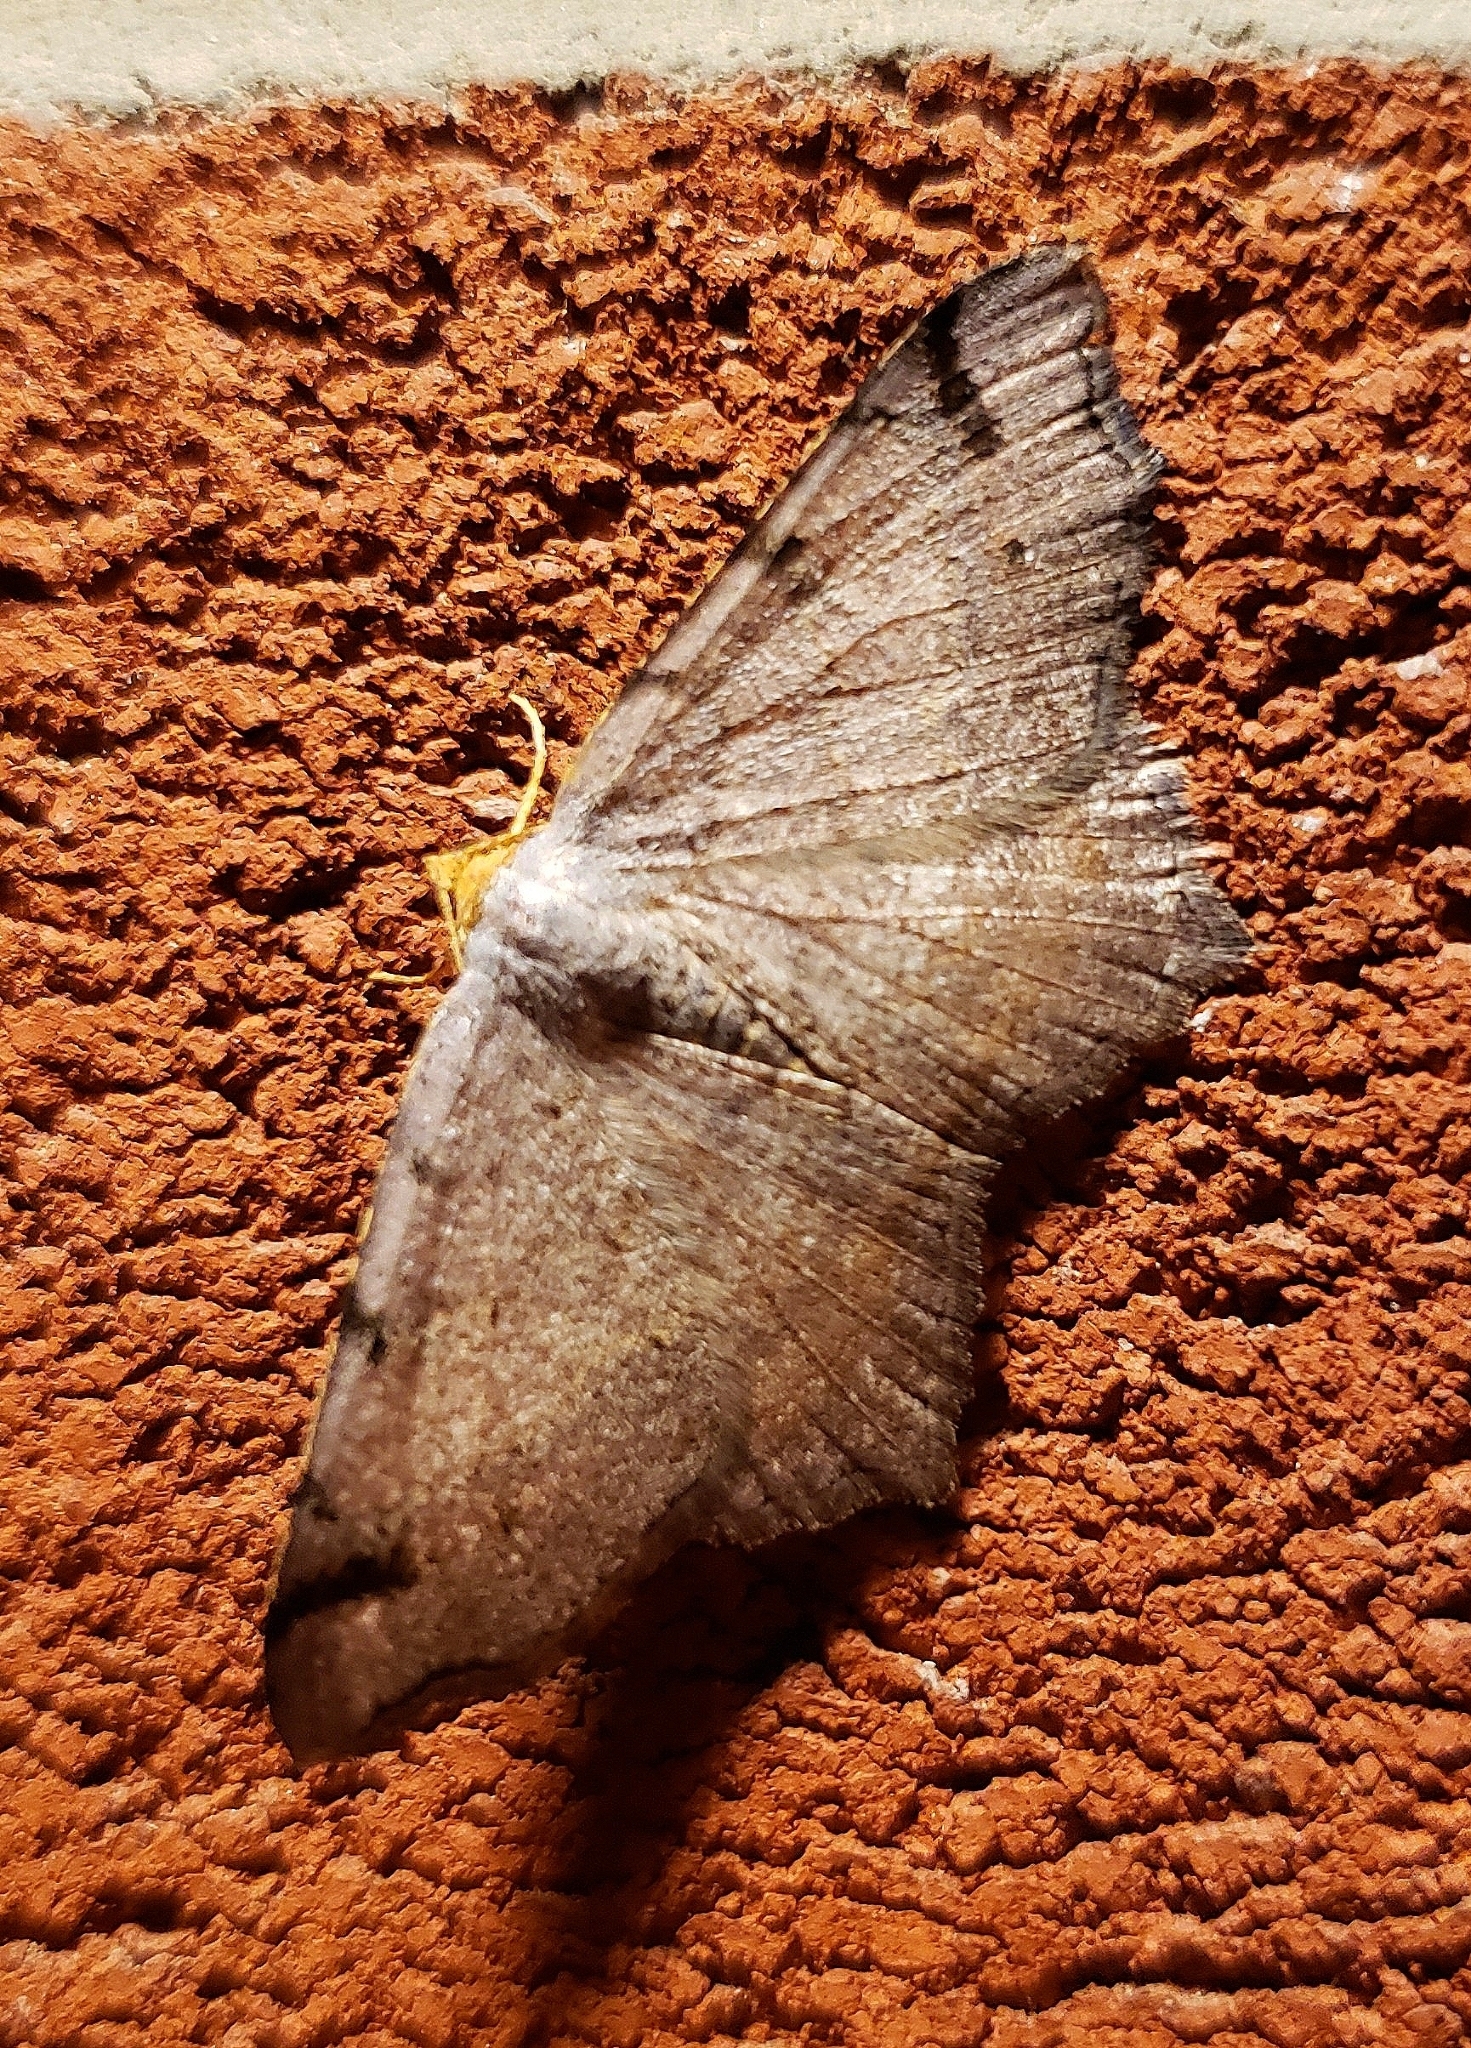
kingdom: Animalia
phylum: Arthropoda
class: Insecta
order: Lepidoptera
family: Geometridae
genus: Macaria
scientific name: Macaria minorata
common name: Minor angle moth
